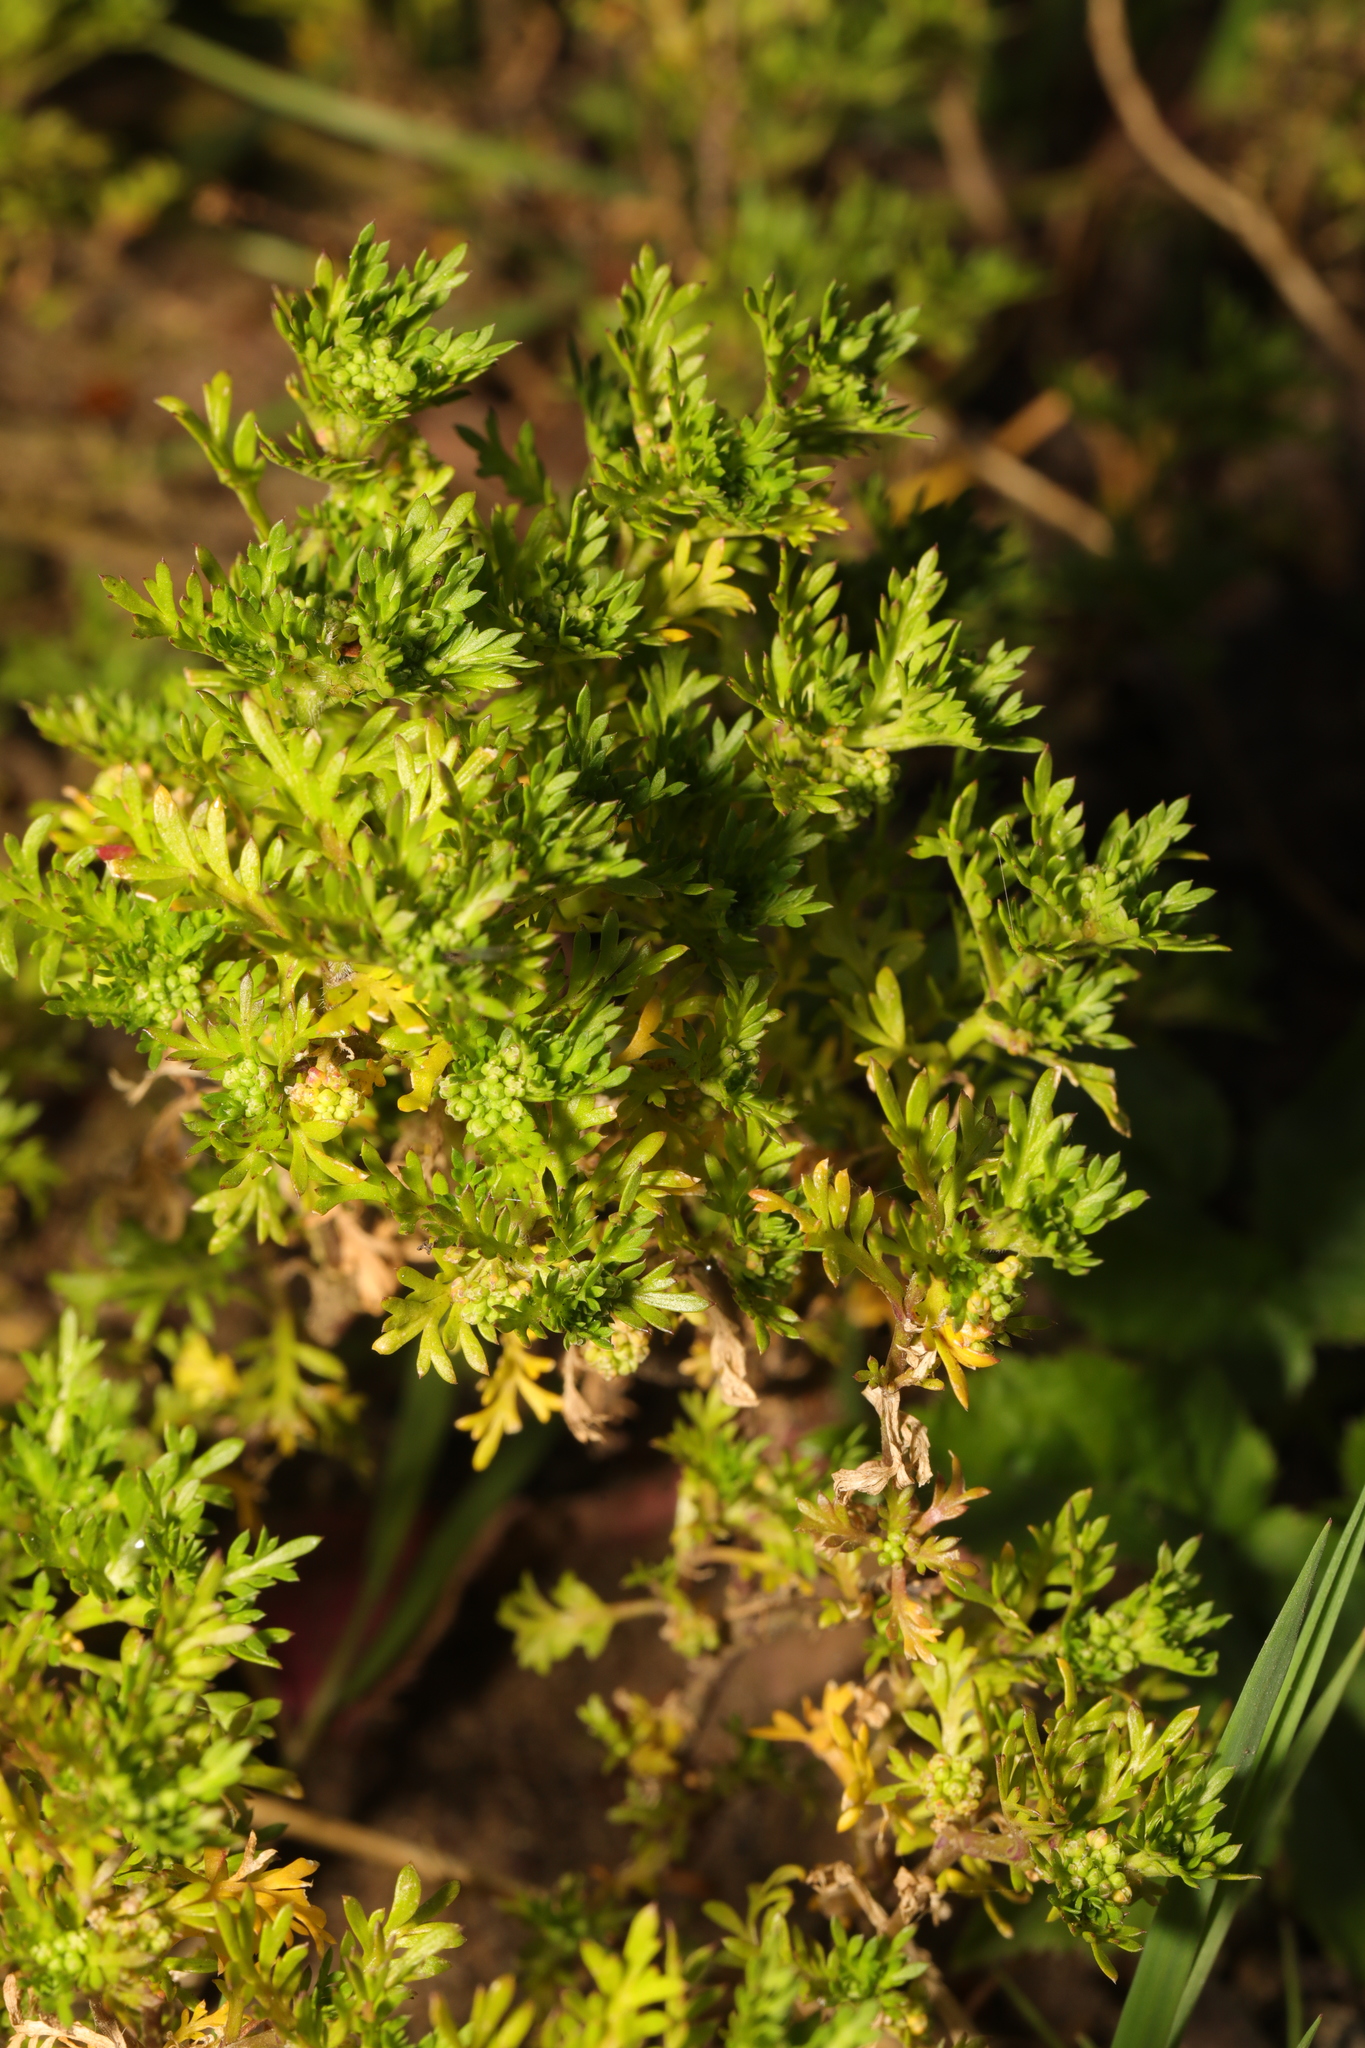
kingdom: Plantae
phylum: Tracheophyta
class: Magnoliopsida
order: Brassicales
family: Brassicaceae
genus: Lepidium
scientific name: Lepidium didymum
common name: Lesser swinecress
